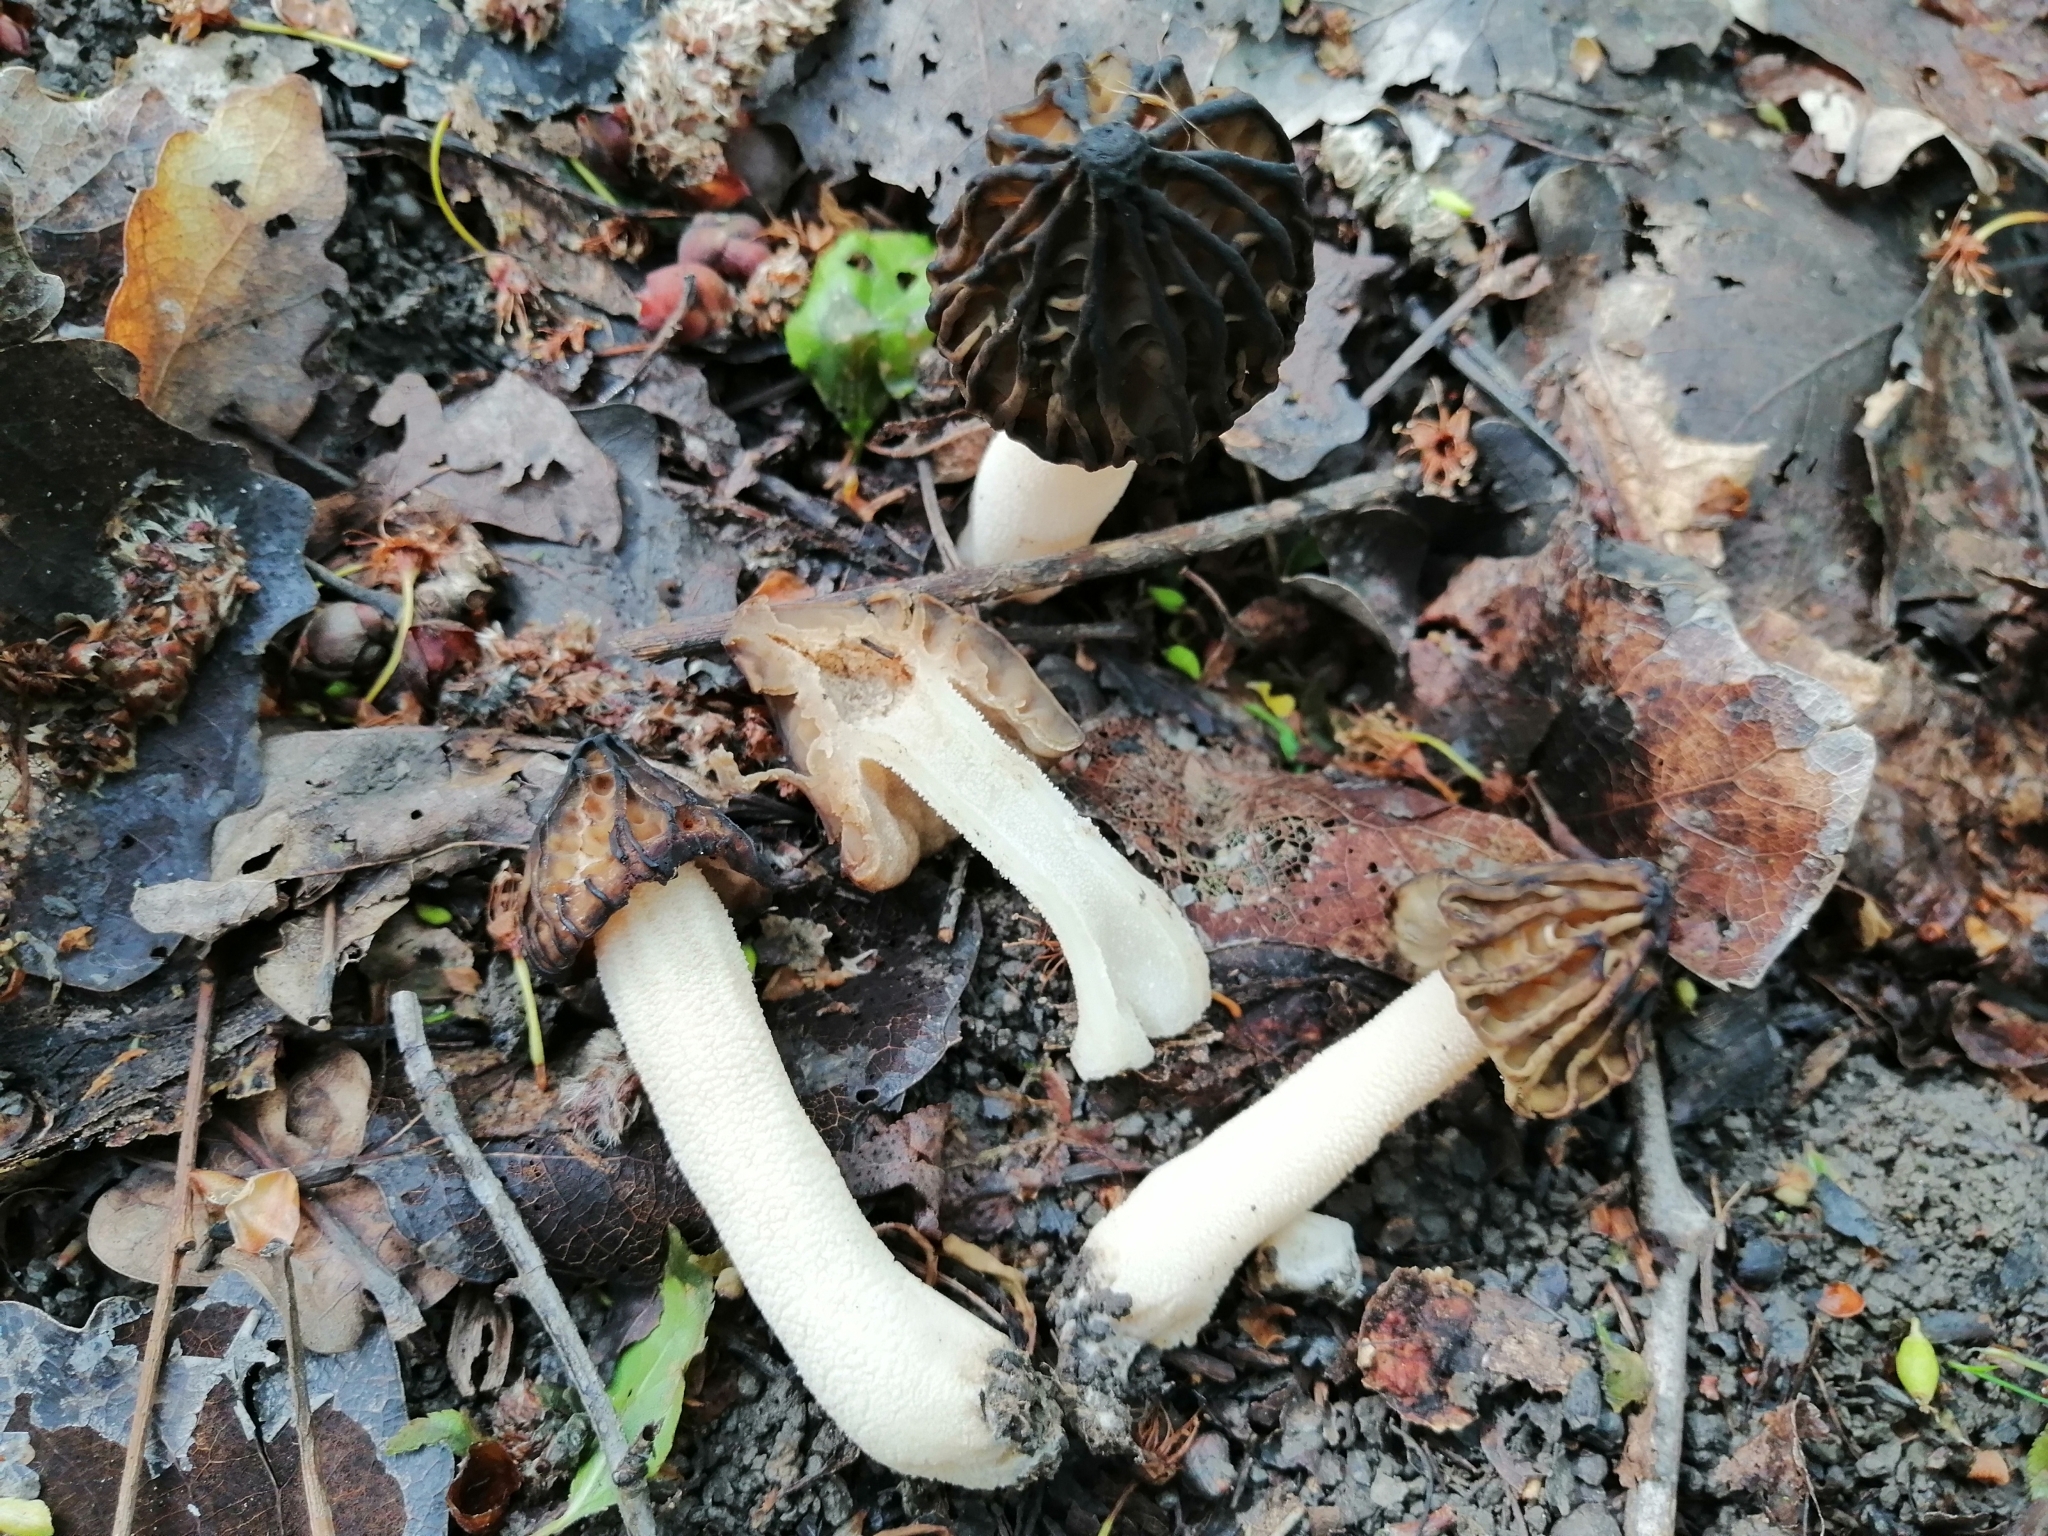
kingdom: Fungi
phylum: Ascomycota
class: Pezizomycetes
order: Pezizales
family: Morchellaceae
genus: Morchella
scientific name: Morchella semilibera
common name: Semifree morel
